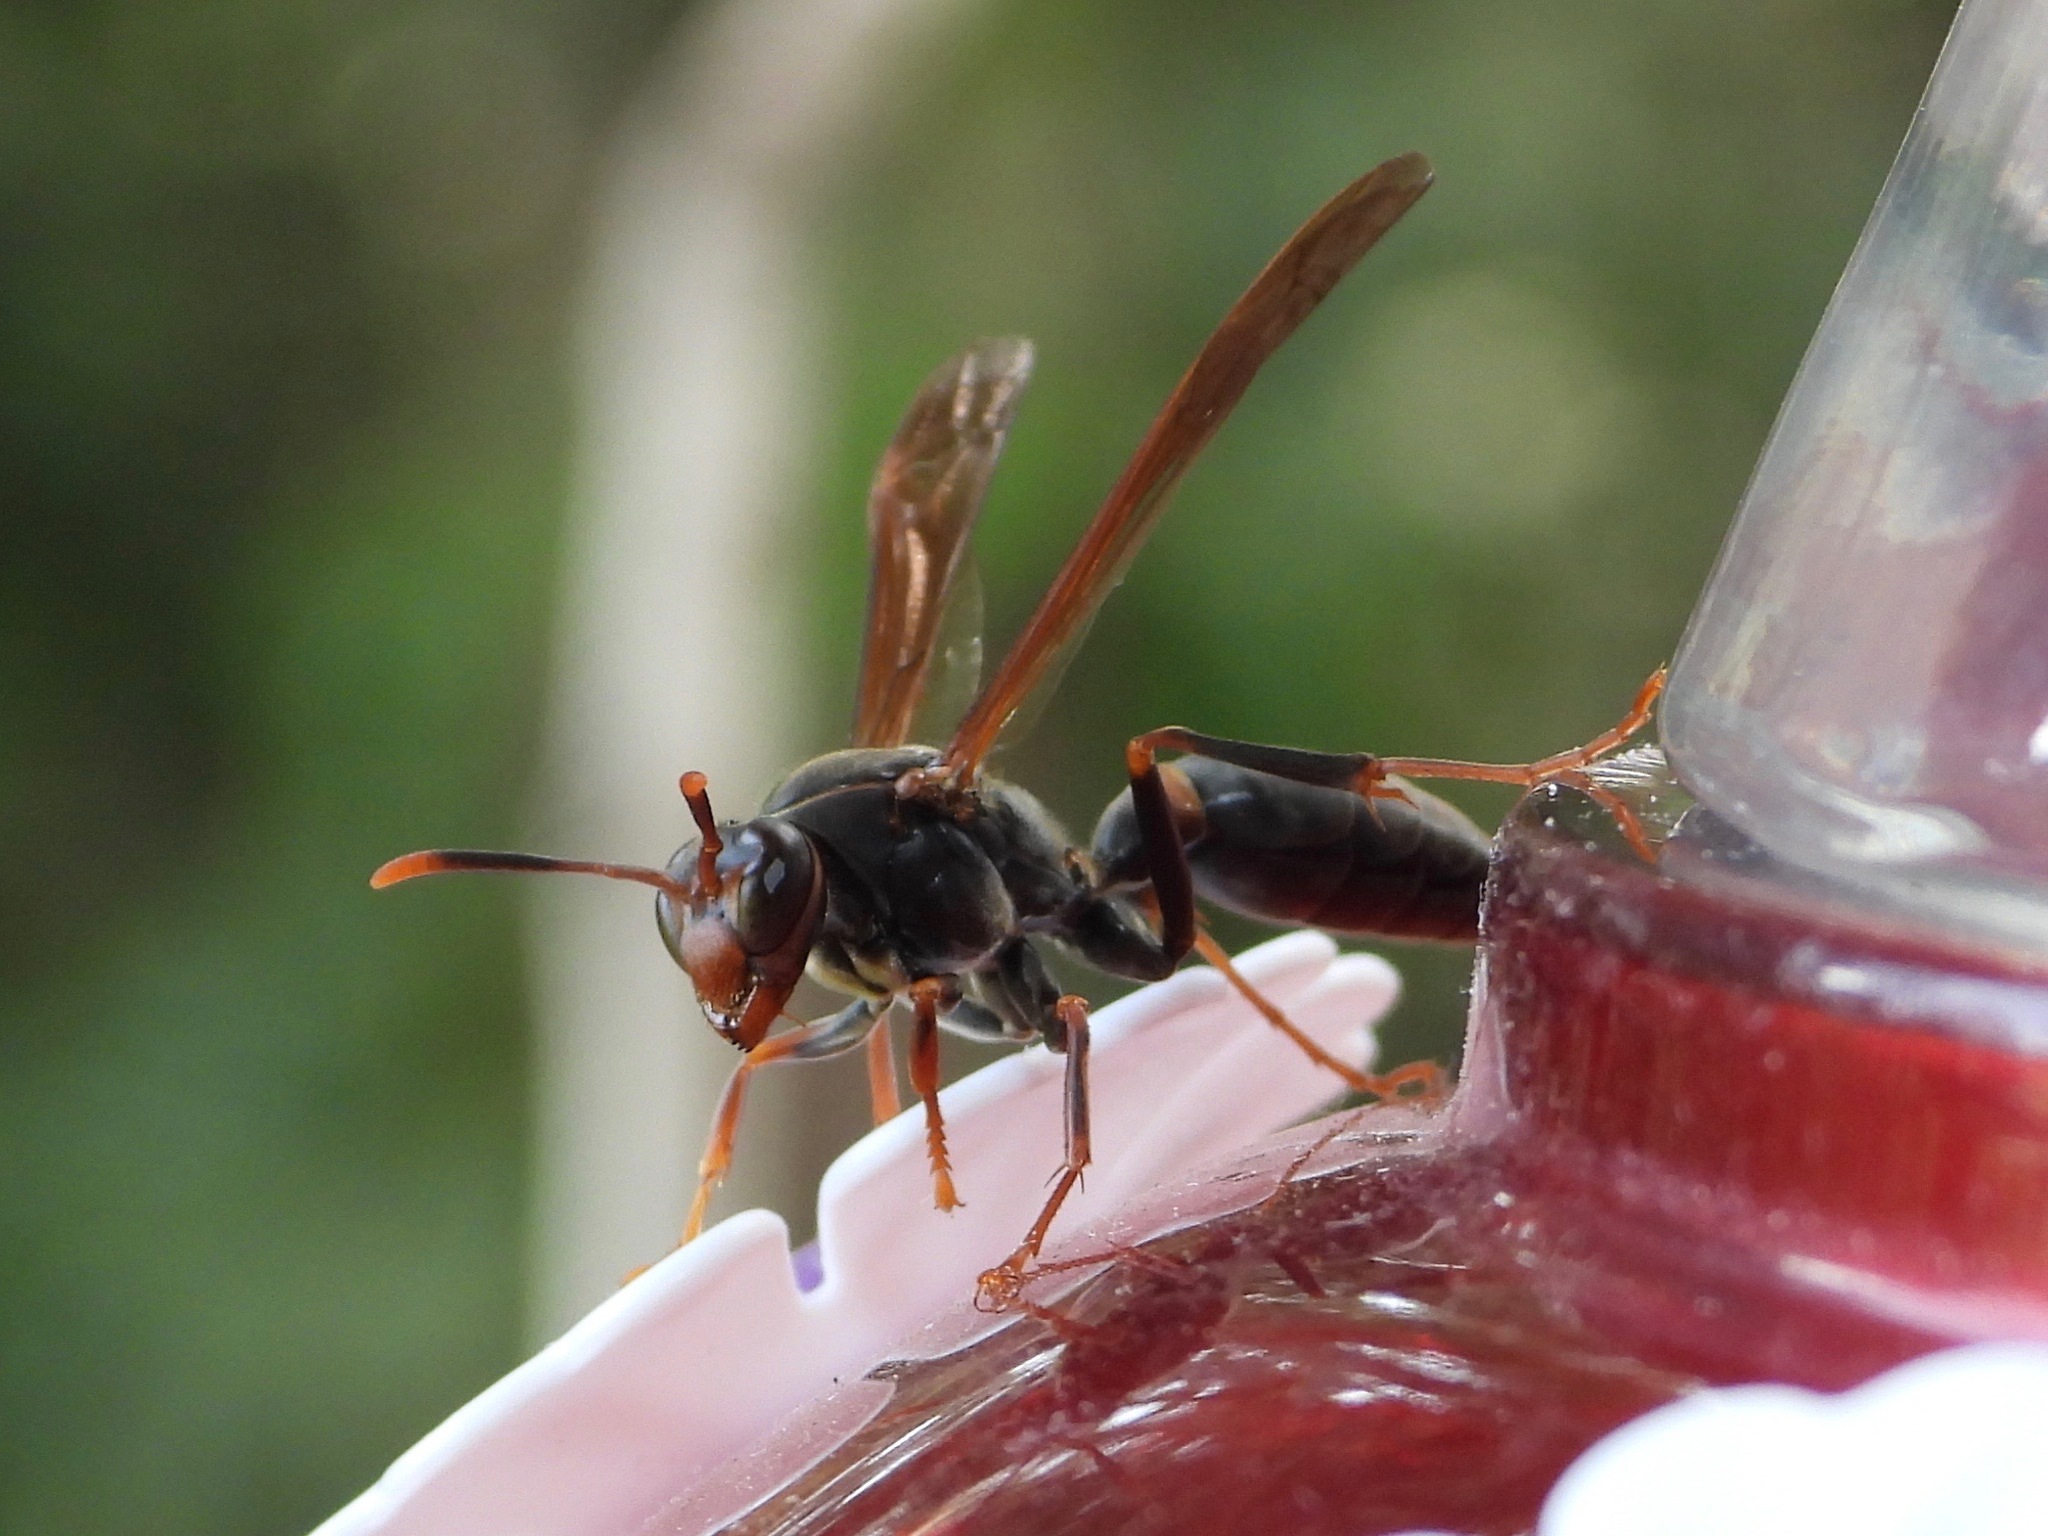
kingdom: Animalia
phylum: Arthropoda
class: Insecta
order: Hymenoptera
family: Eumenidae
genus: Polistes
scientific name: Polistes apicalis
